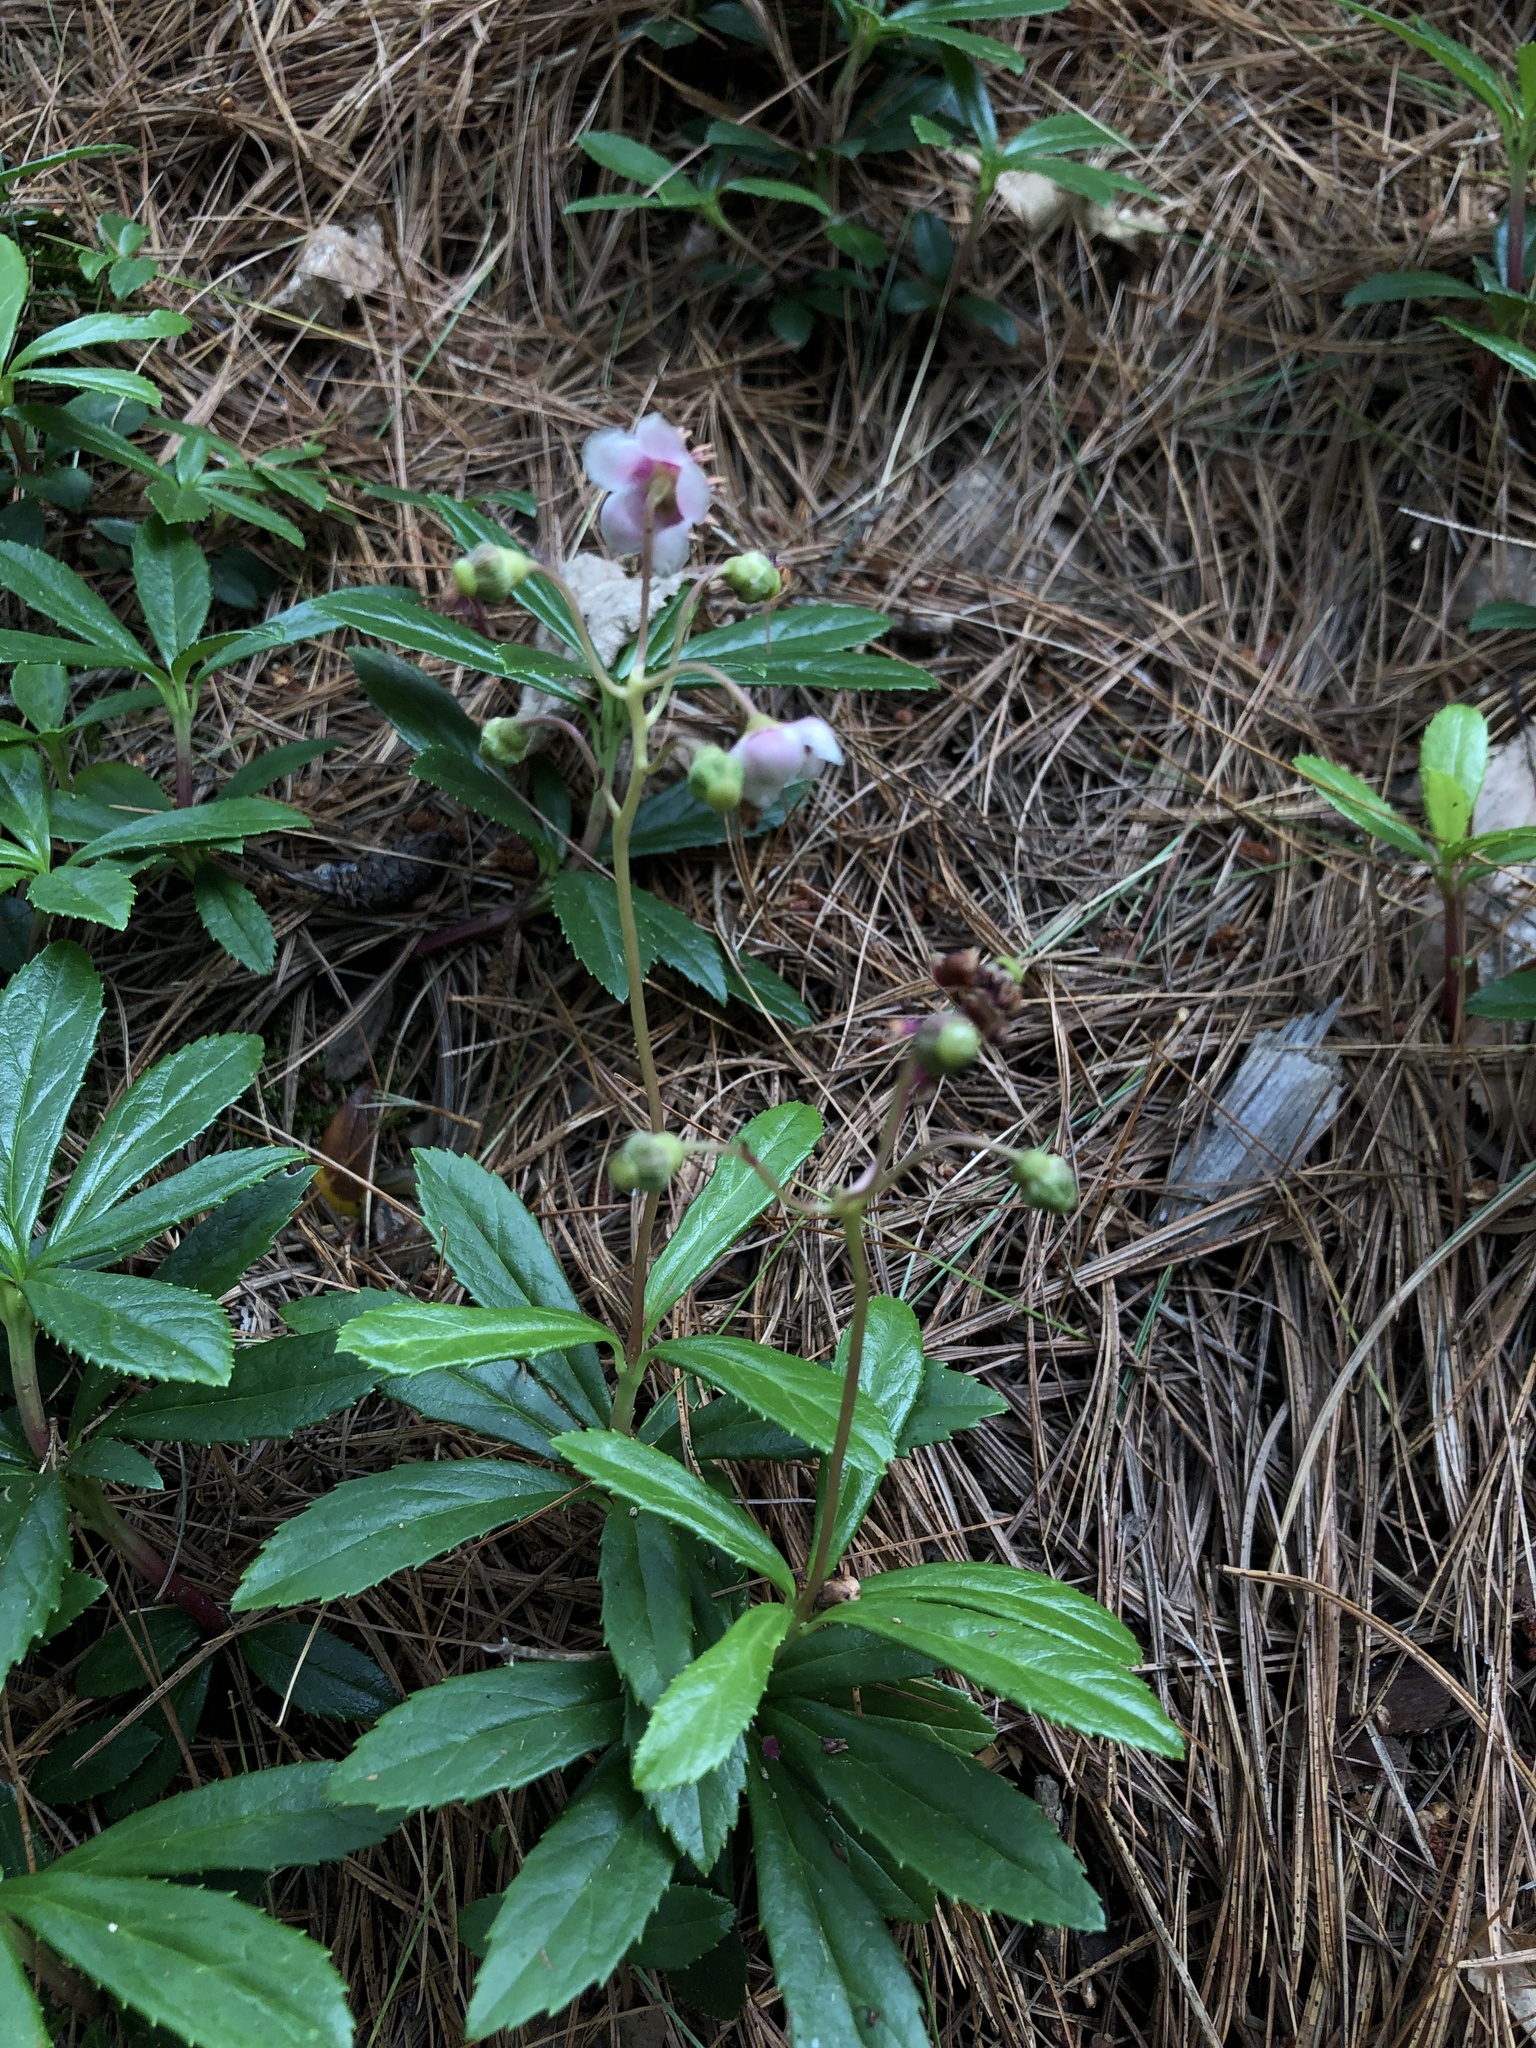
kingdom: Plantae
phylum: Tracheophyta
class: Magnoliopsida
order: Ericales
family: Ericaceae
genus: Chimaphila
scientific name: Chimaphila umbellata
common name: Pipsissewa
